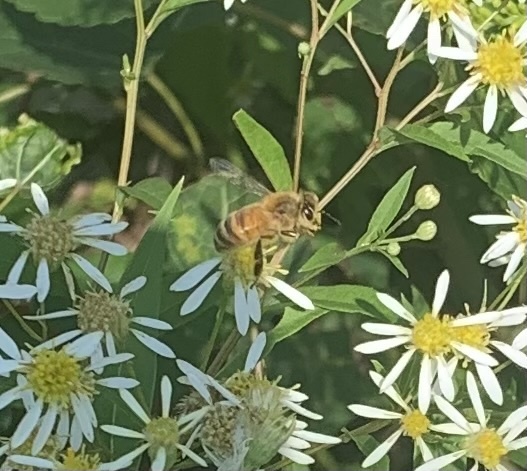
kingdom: Animalia
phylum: Arthropoda
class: Insecta
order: Hymenoptera
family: Apidae
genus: Apis
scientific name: Apis mellifera
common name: Honey bee
